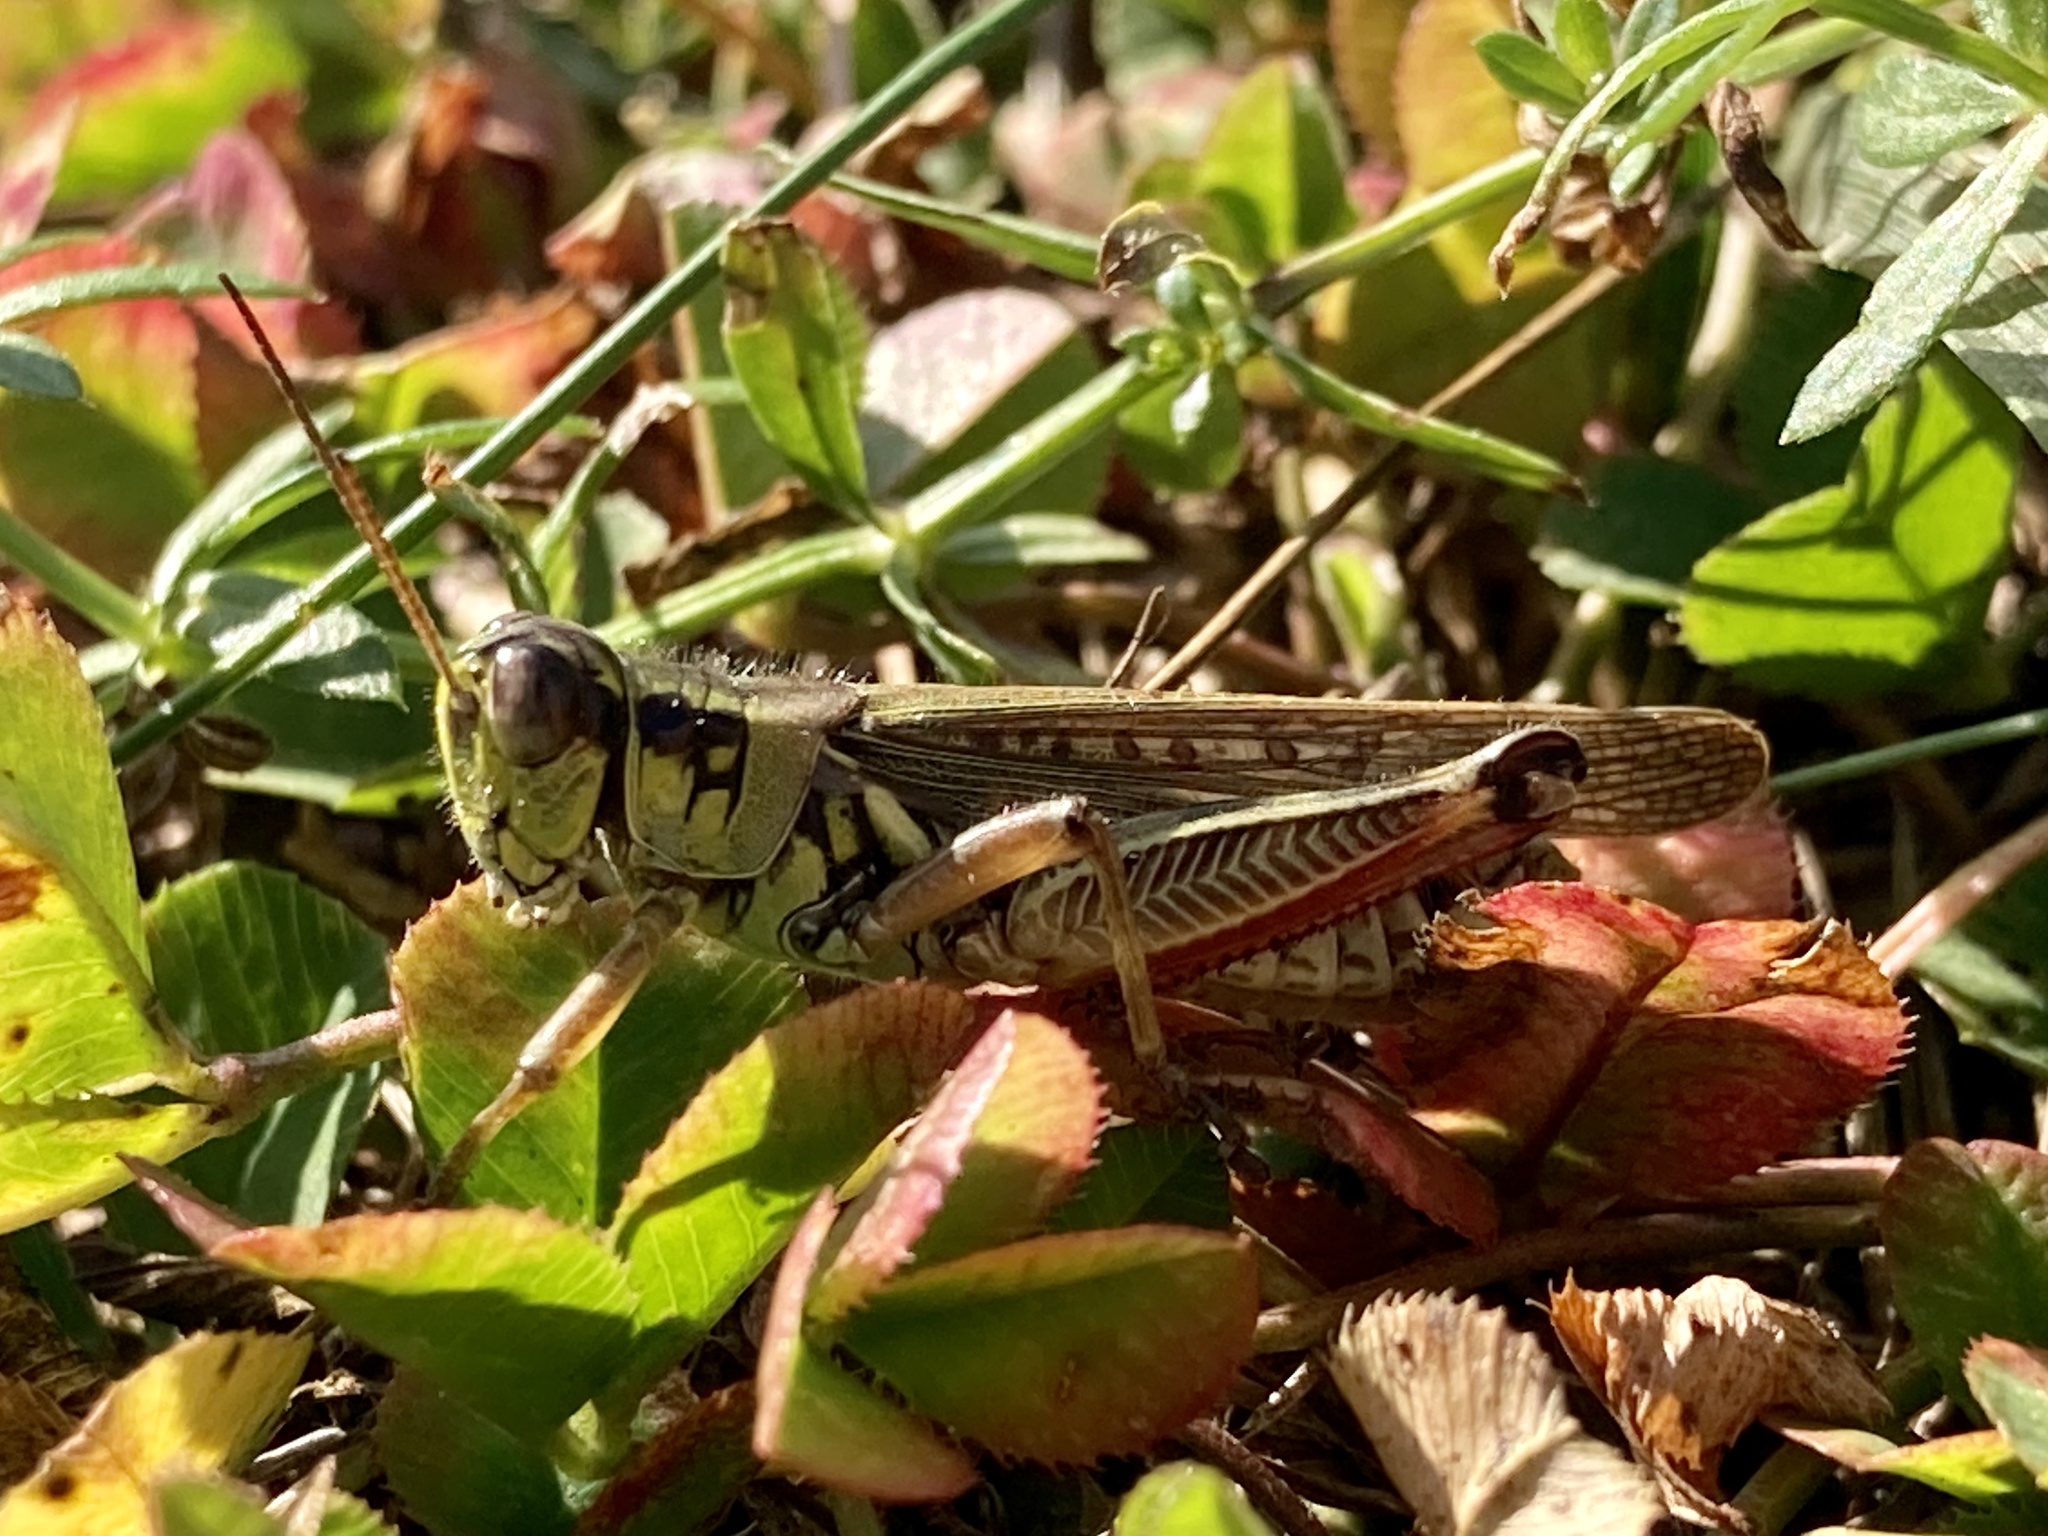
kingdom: Animalia
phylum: Arthropoda
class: Insecta
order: Orthoptera
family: Acrididae
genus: Melanoplus
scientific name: Melanoplus femurrubrum
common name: Red-legged grasshopper
